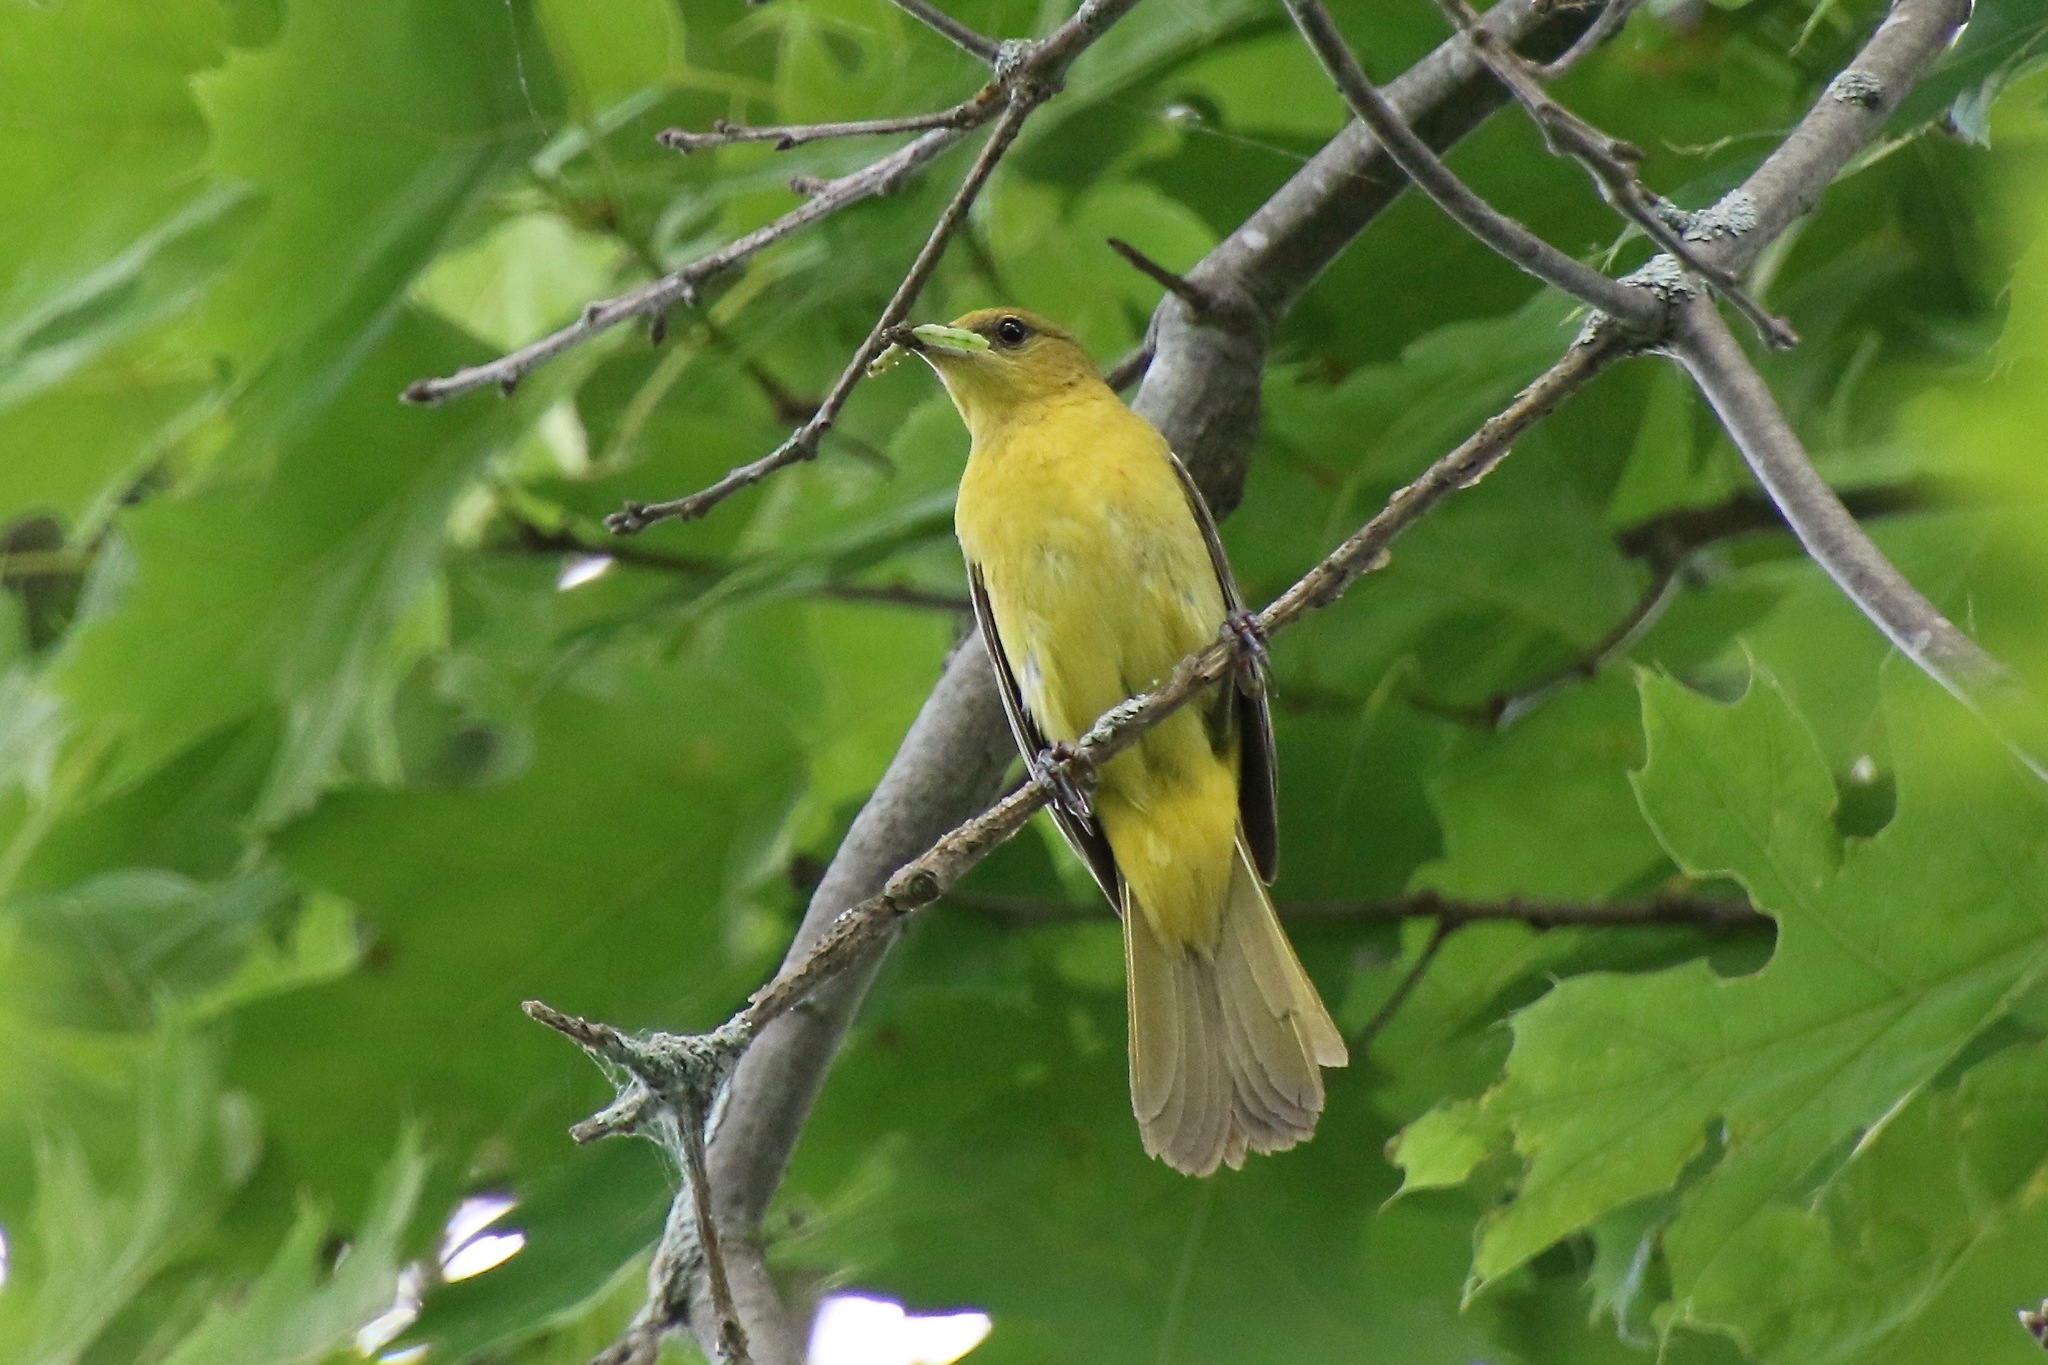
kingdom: Animalia
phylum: Chordata
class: Aves
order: Passeriformes
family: Icteridae
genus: Icterus
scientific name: Icterus spurius
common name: Orchard oriole
